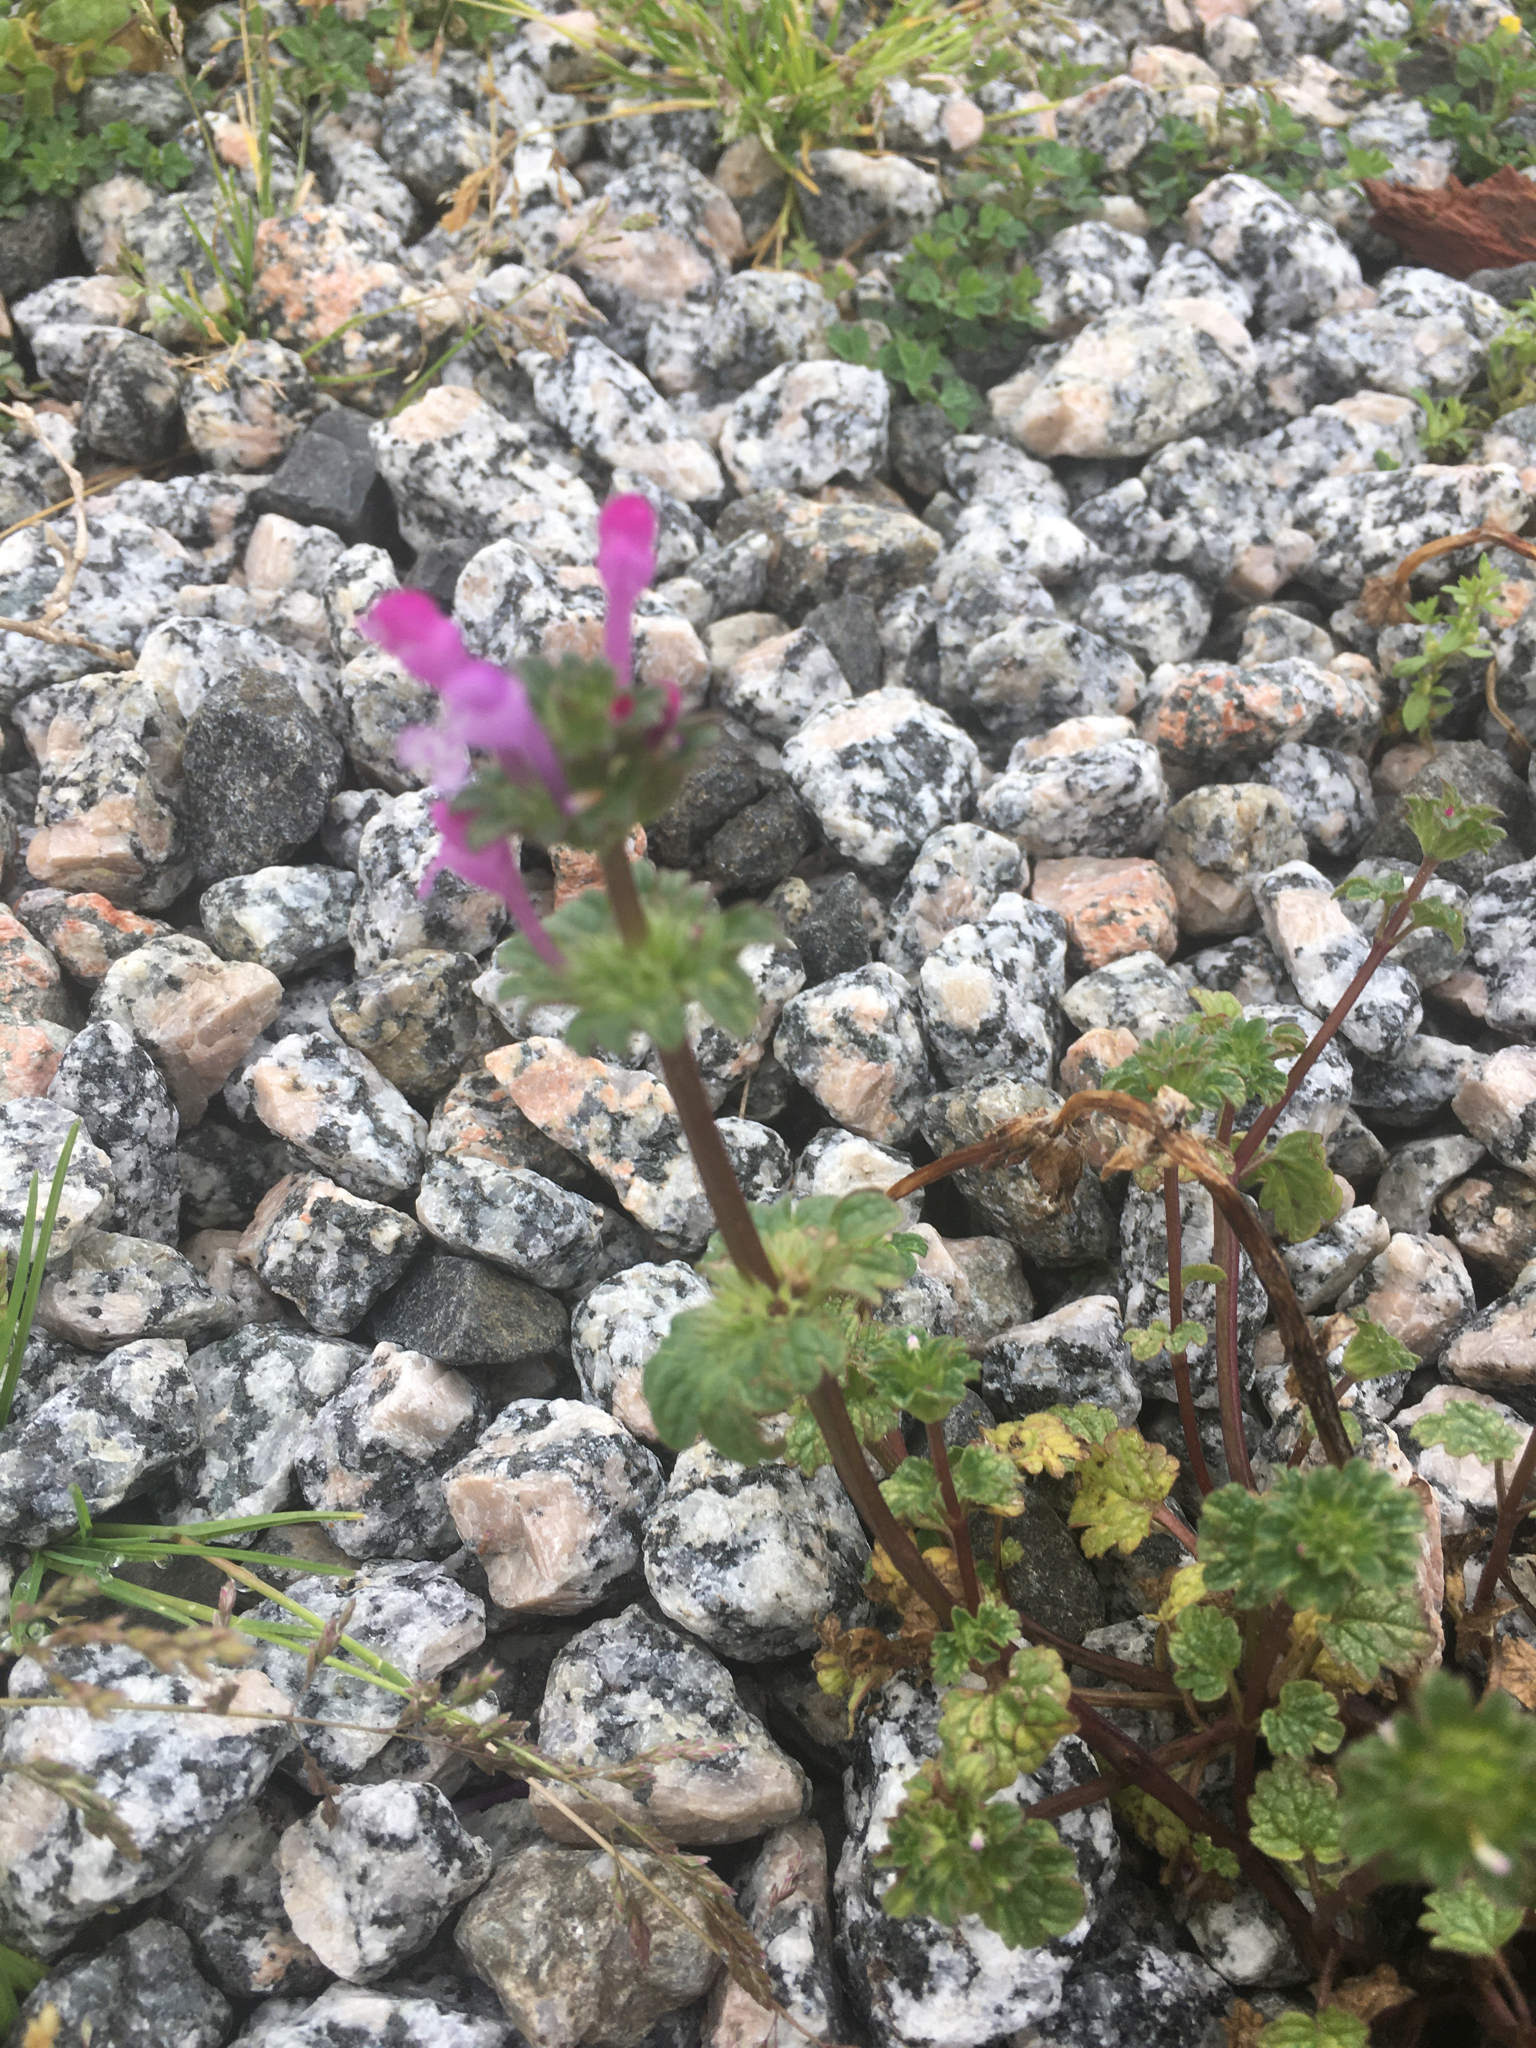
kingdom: Plantae
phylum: Tracheophyta
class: Magnoliopsida
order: Lamiales
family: Lamiaceae
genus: Lamium
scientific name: Lamium amplexicaule
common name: Henbit dead-nettle
